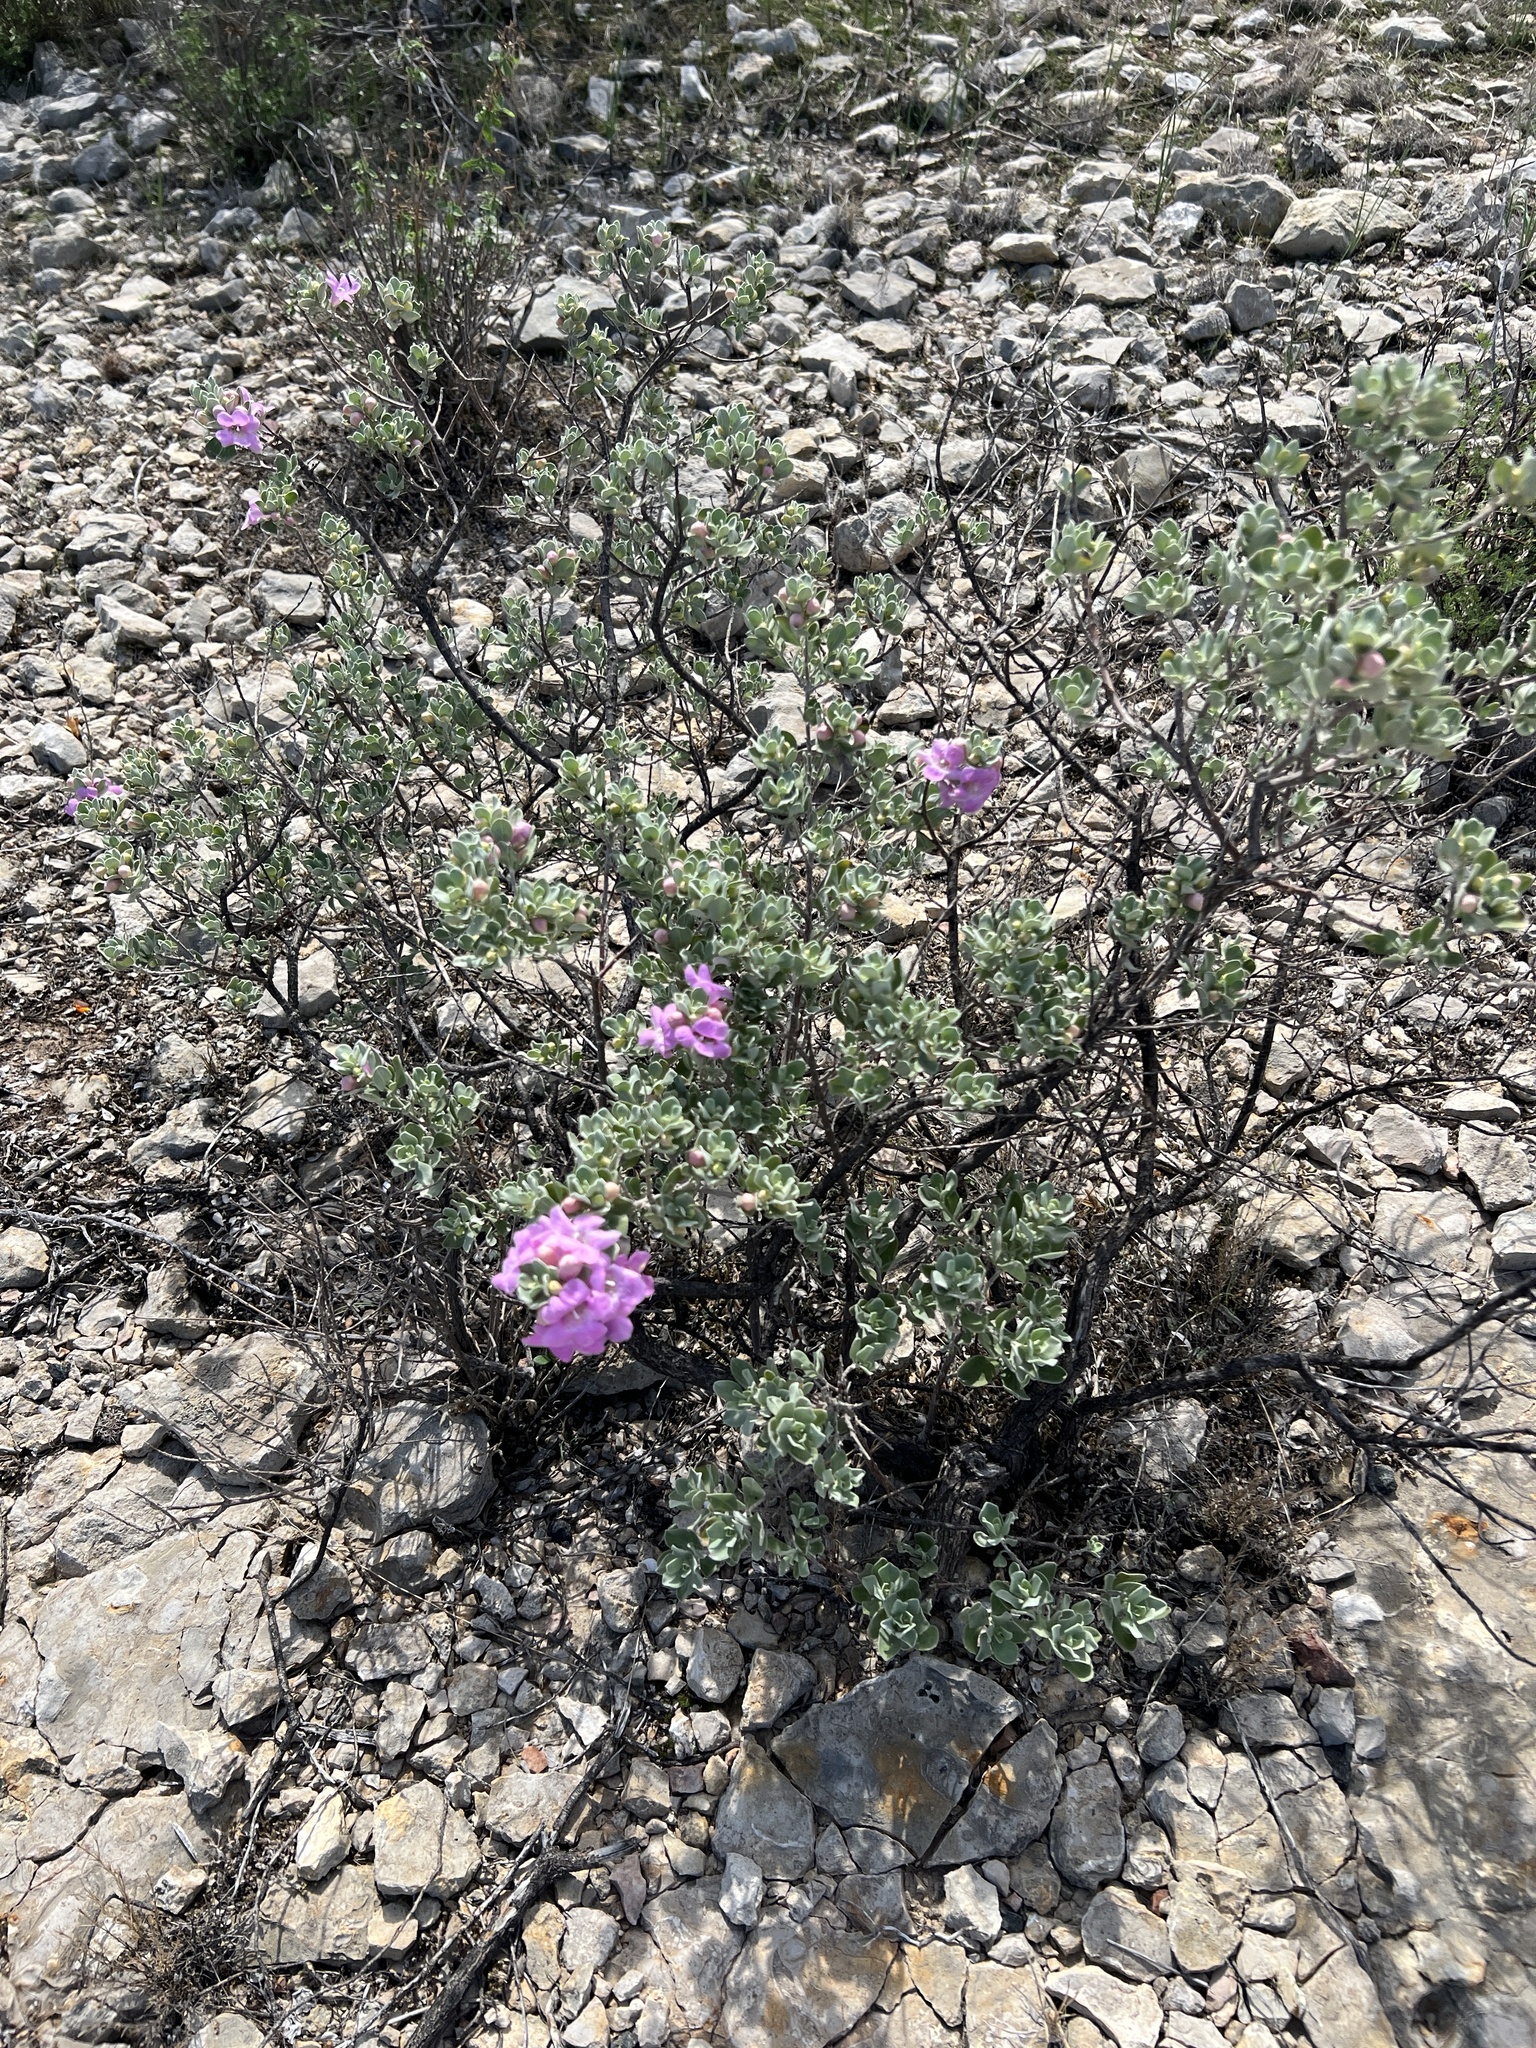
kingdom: Plantae
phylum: Tracheophyta
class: Magnoliopsida
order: Lamiales
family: Scrophulariaceae
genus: Leucophyllum
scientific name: Leucophyllum frutescens
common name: Texas silverleaf
